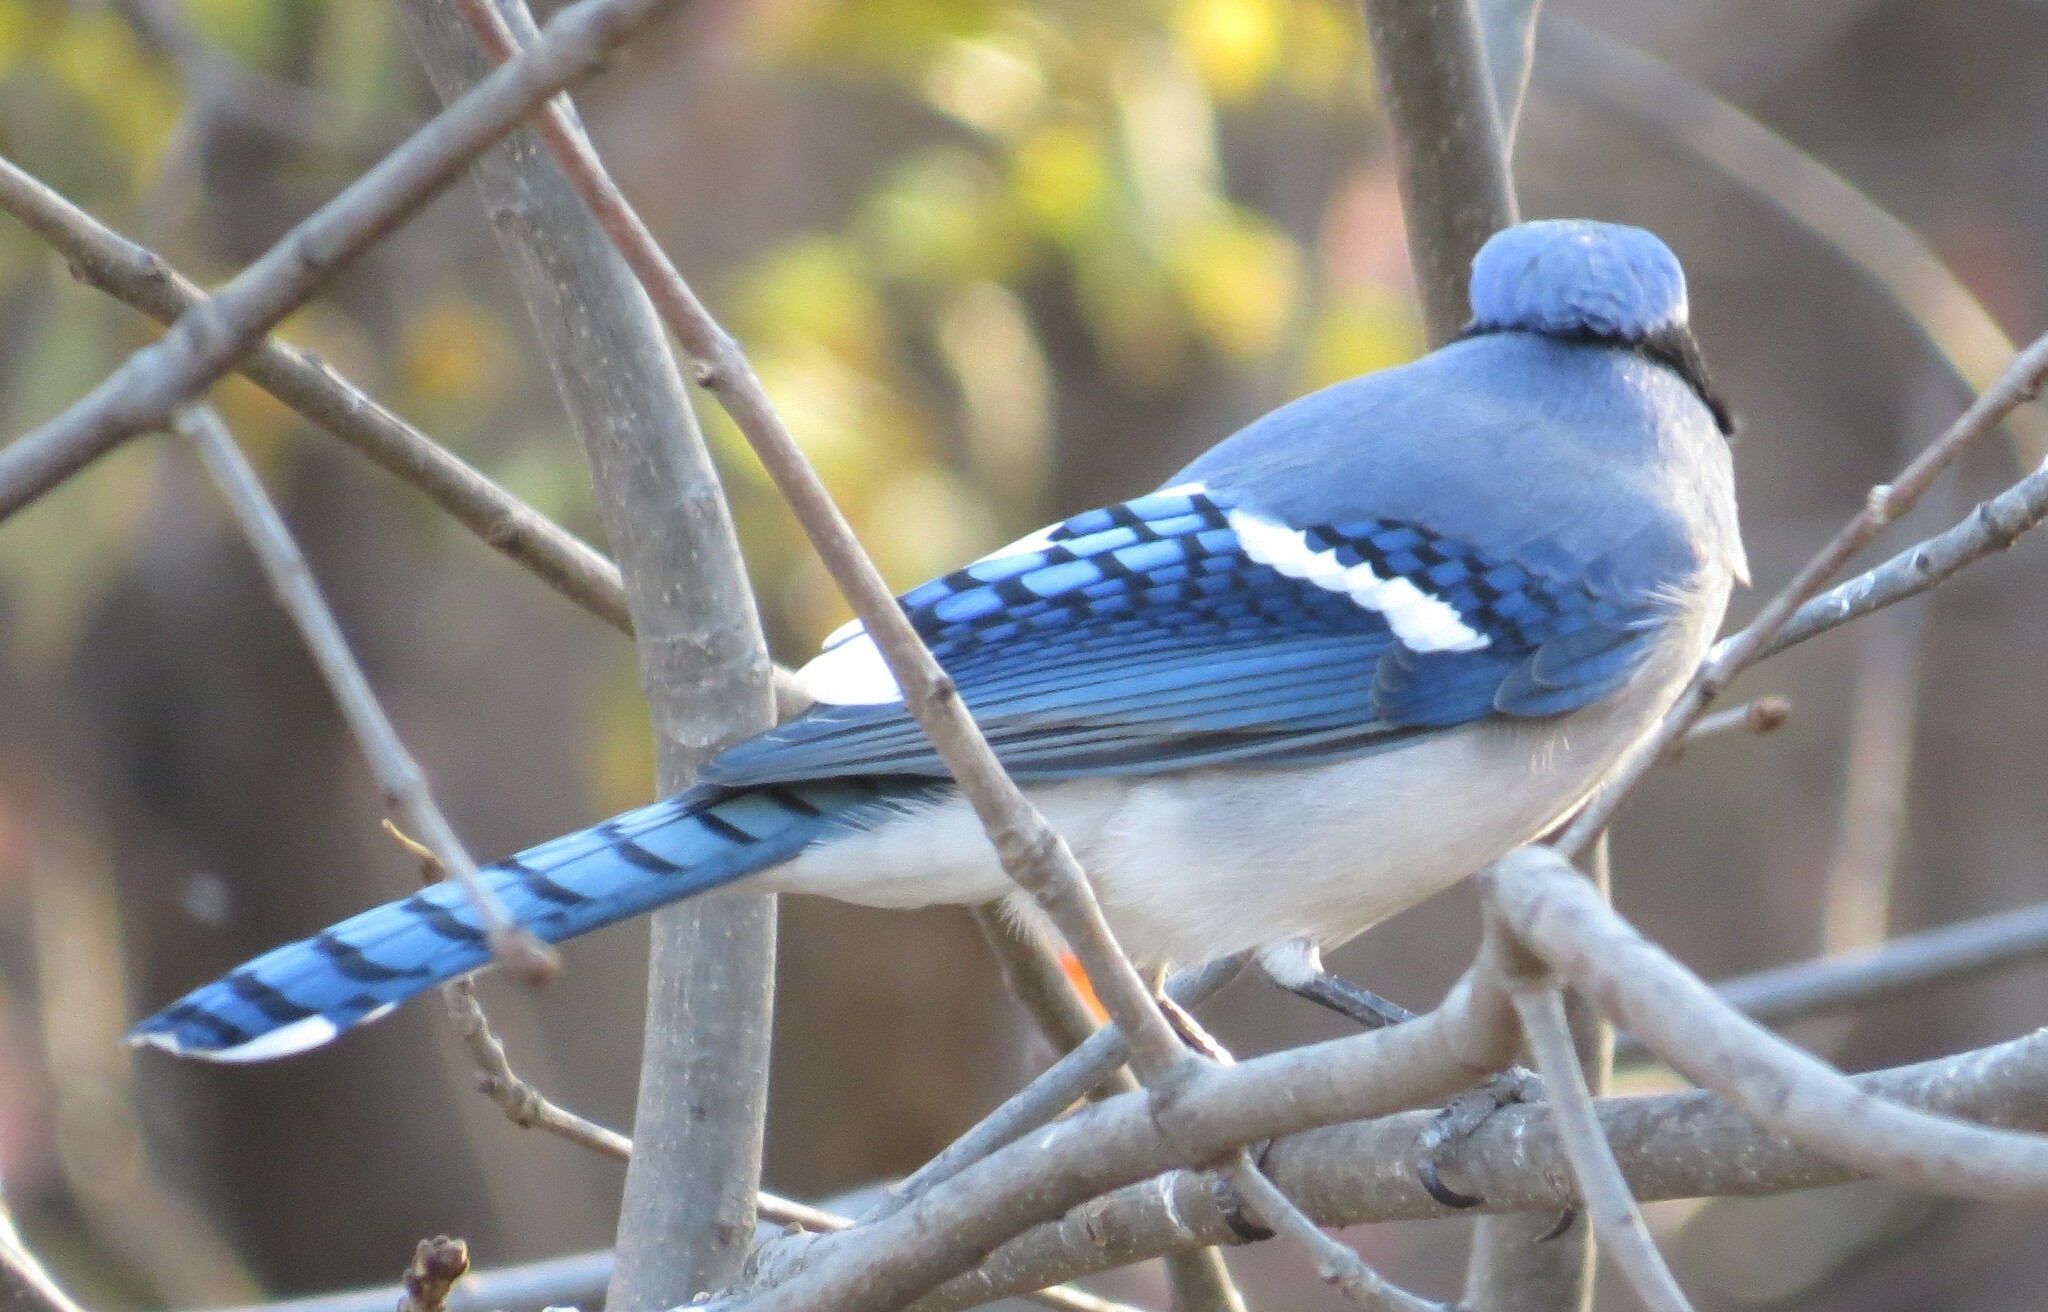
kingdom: Animalia
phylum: Chordata
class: Aves
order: Passeriformes
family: Corvidae
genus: Cyanocitta
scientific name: Cyanocitta cristata
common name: Blue jay
